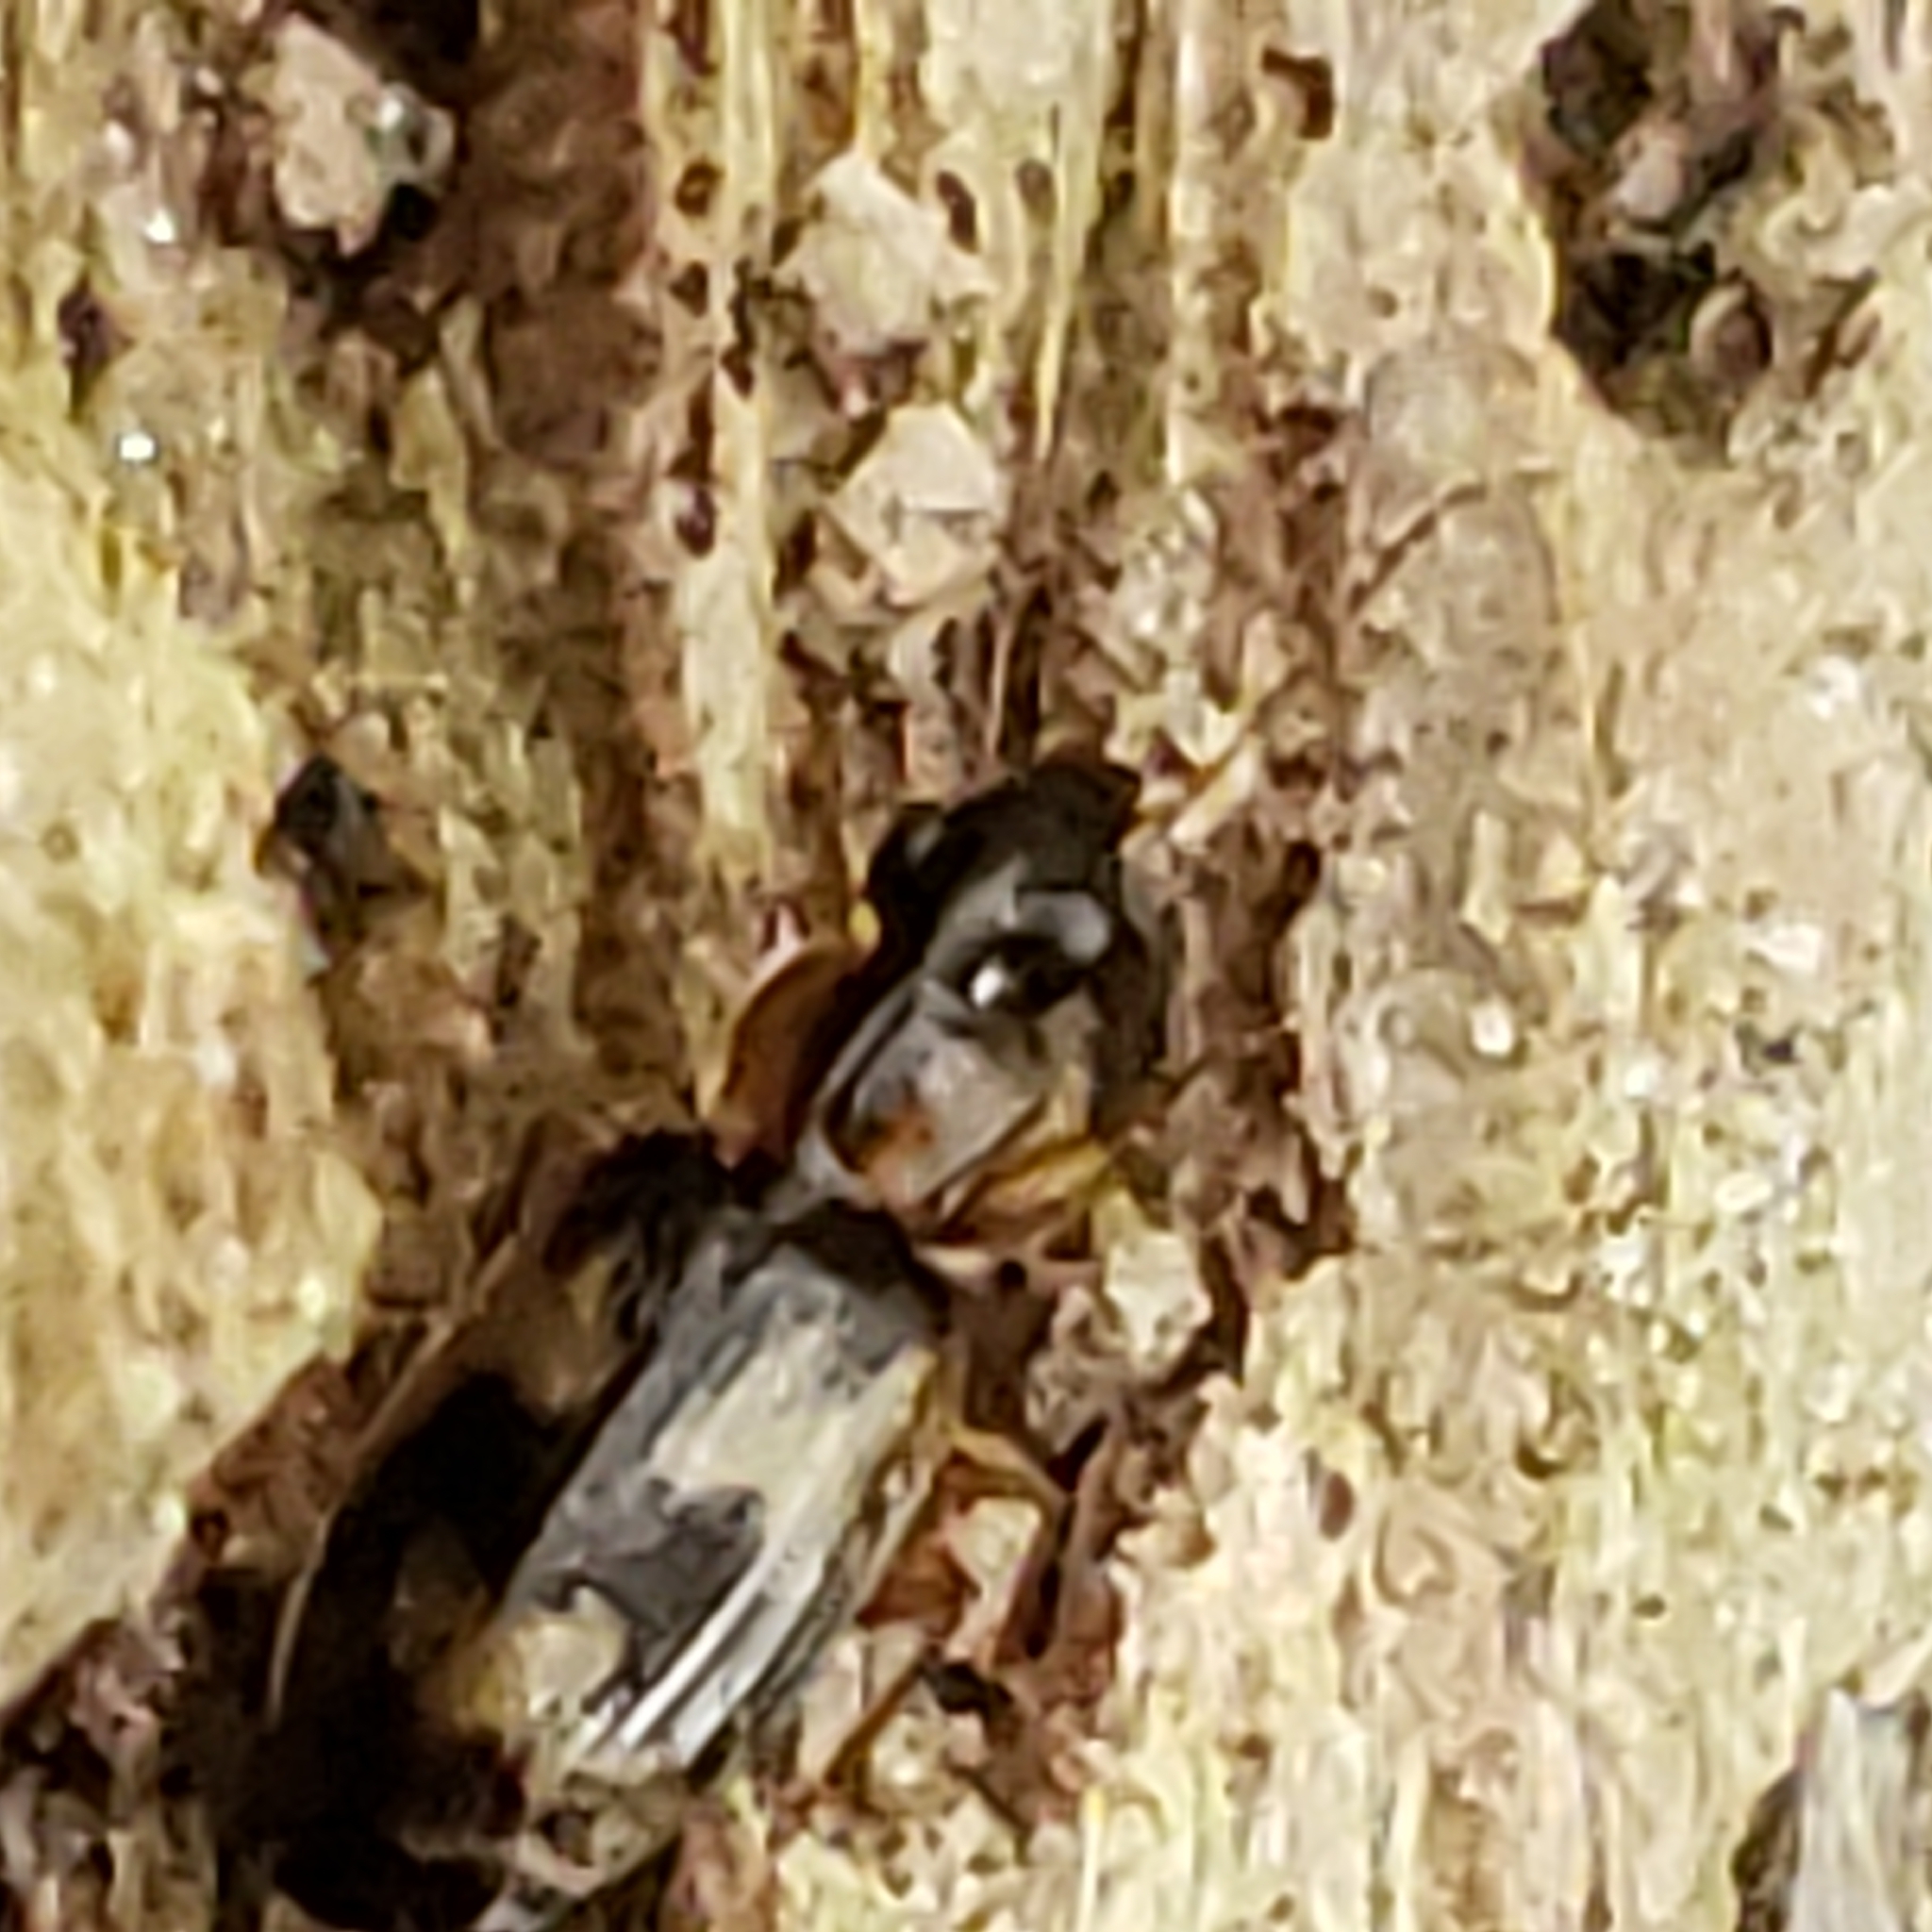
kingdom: Animalia
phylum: Arthropoda
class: Insecta
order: Coleoptera
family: Carabidae
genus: Phloeoxena
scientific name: Phloeoxena signata
